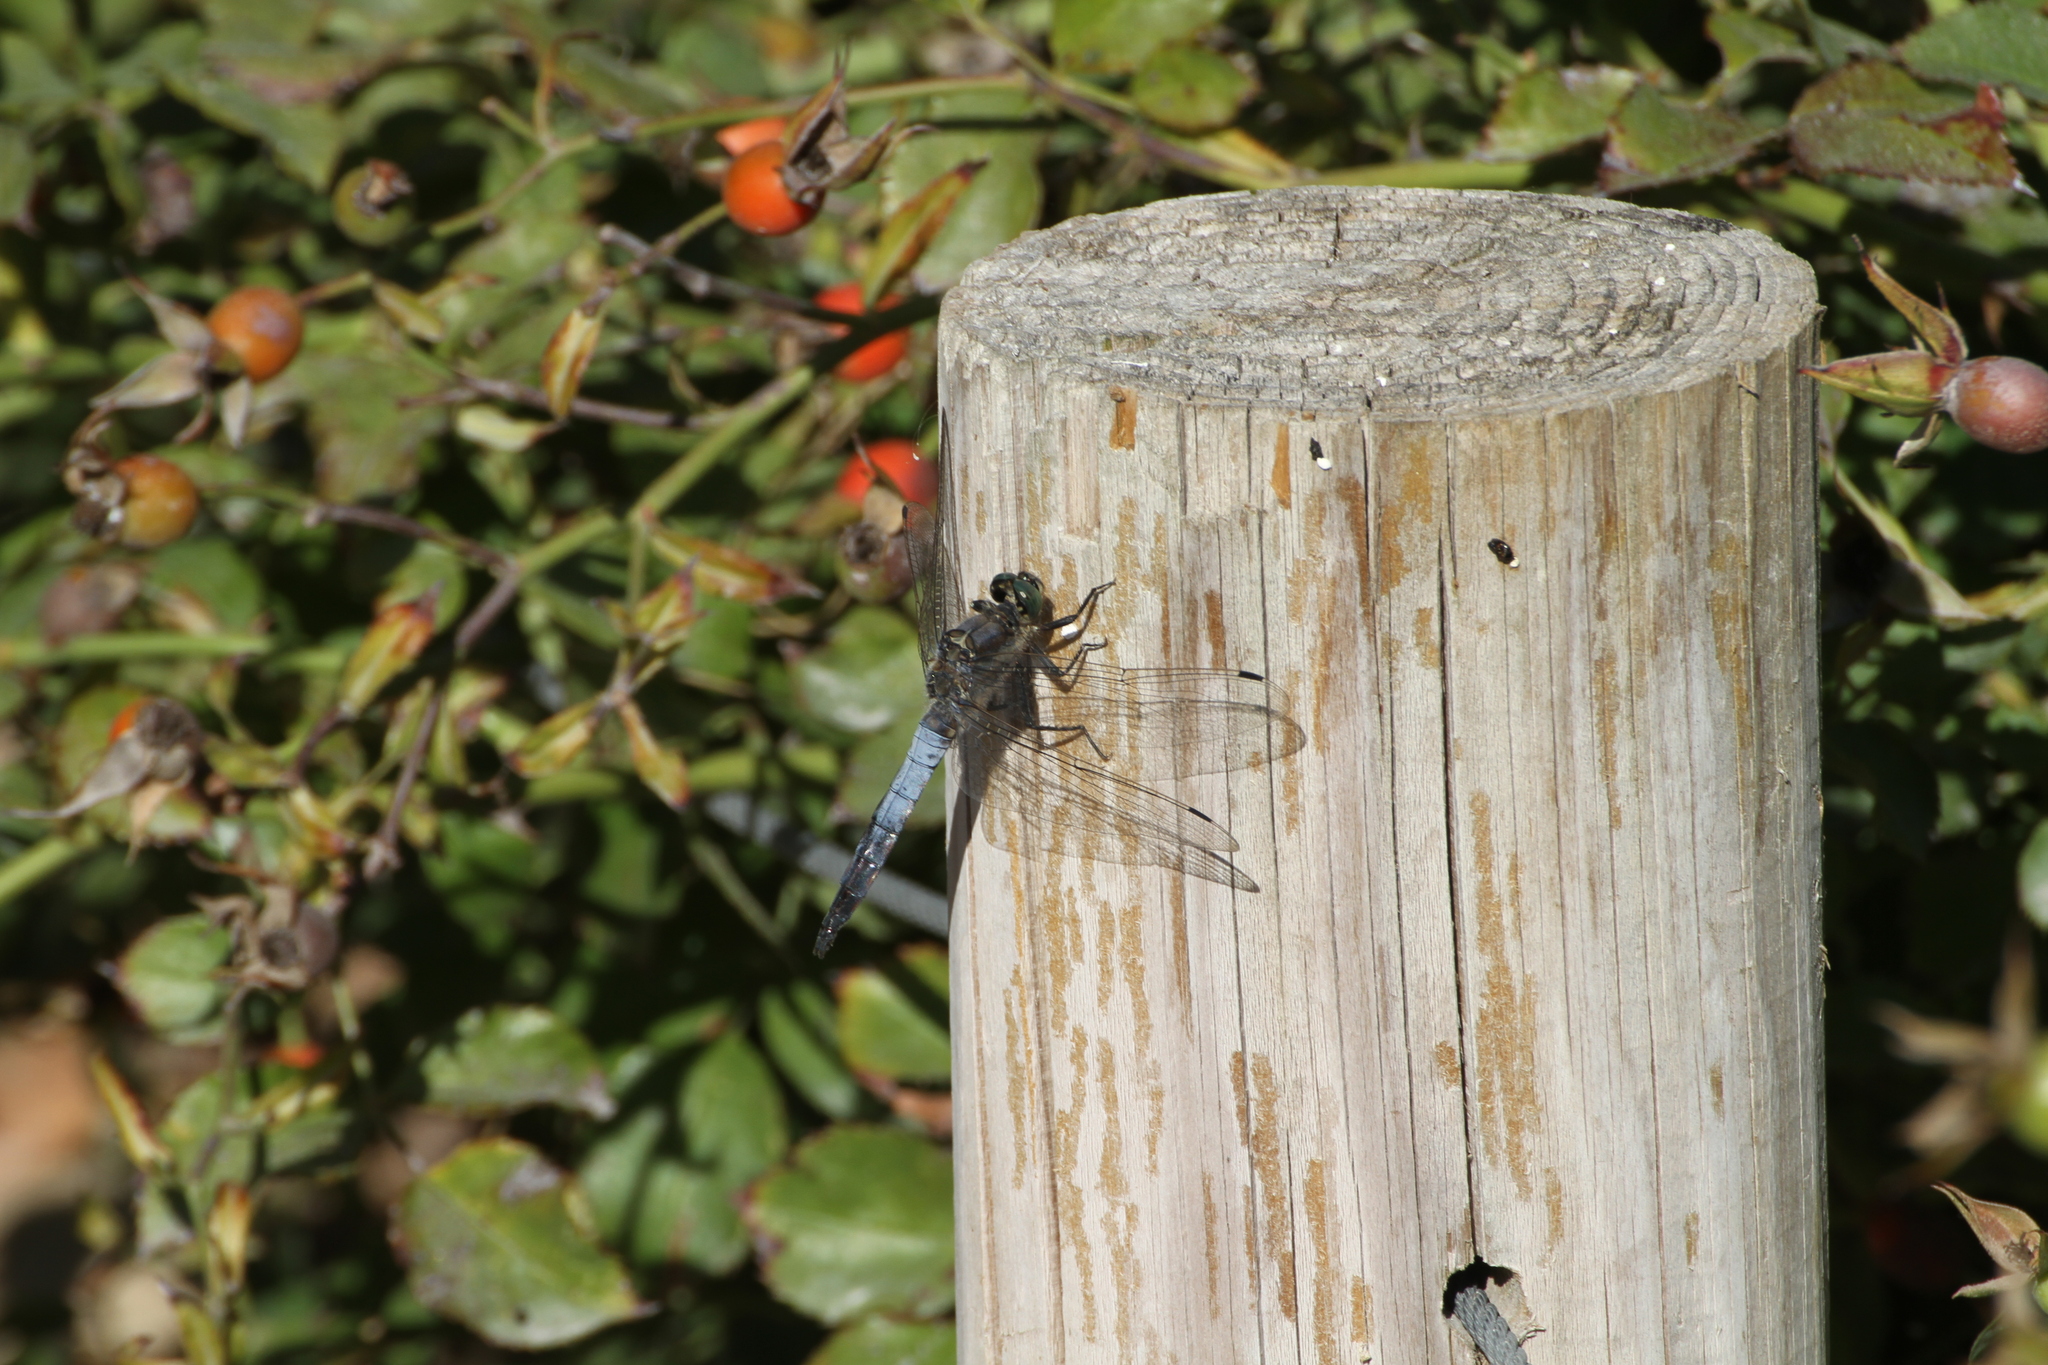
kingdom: Animalia
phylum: Arthropoda
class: Insecta
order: Odonata
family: Libellulidae
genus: Orthetrum
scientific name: Orthetrum cancellatum
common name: Black-tailed skimmer
